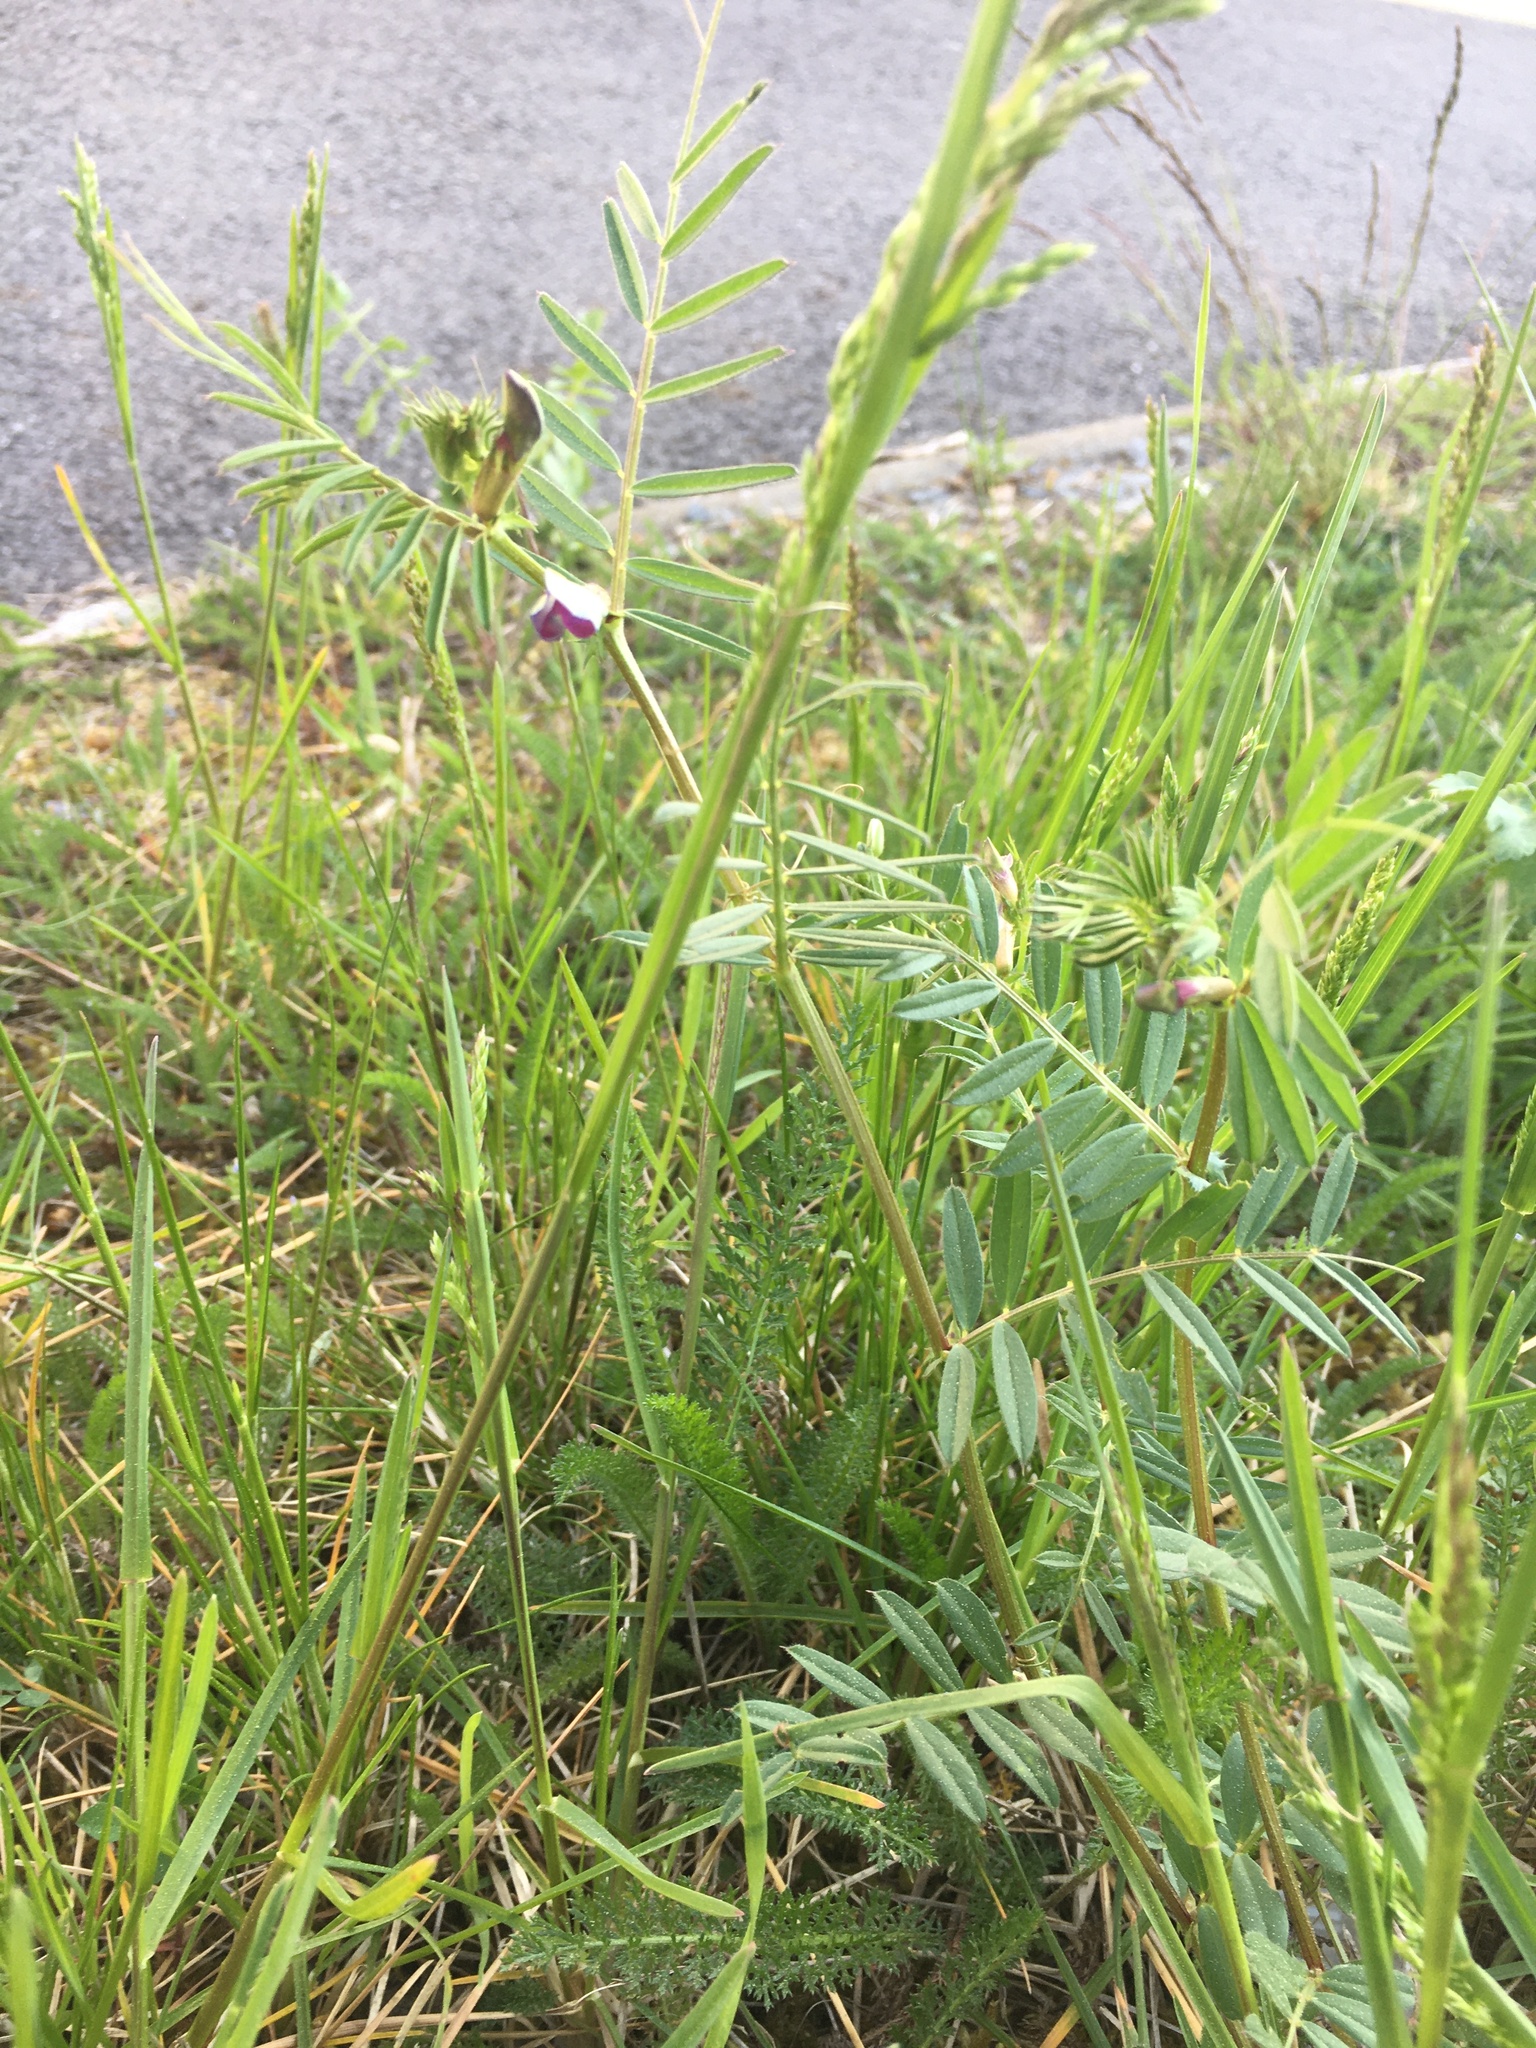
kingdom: Plantae
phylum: Tracheophyta
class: Magnoliopsida
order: Fabales
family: Fabaceae
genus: Vicia
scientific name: Vicia sativa
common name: Garden vetch
